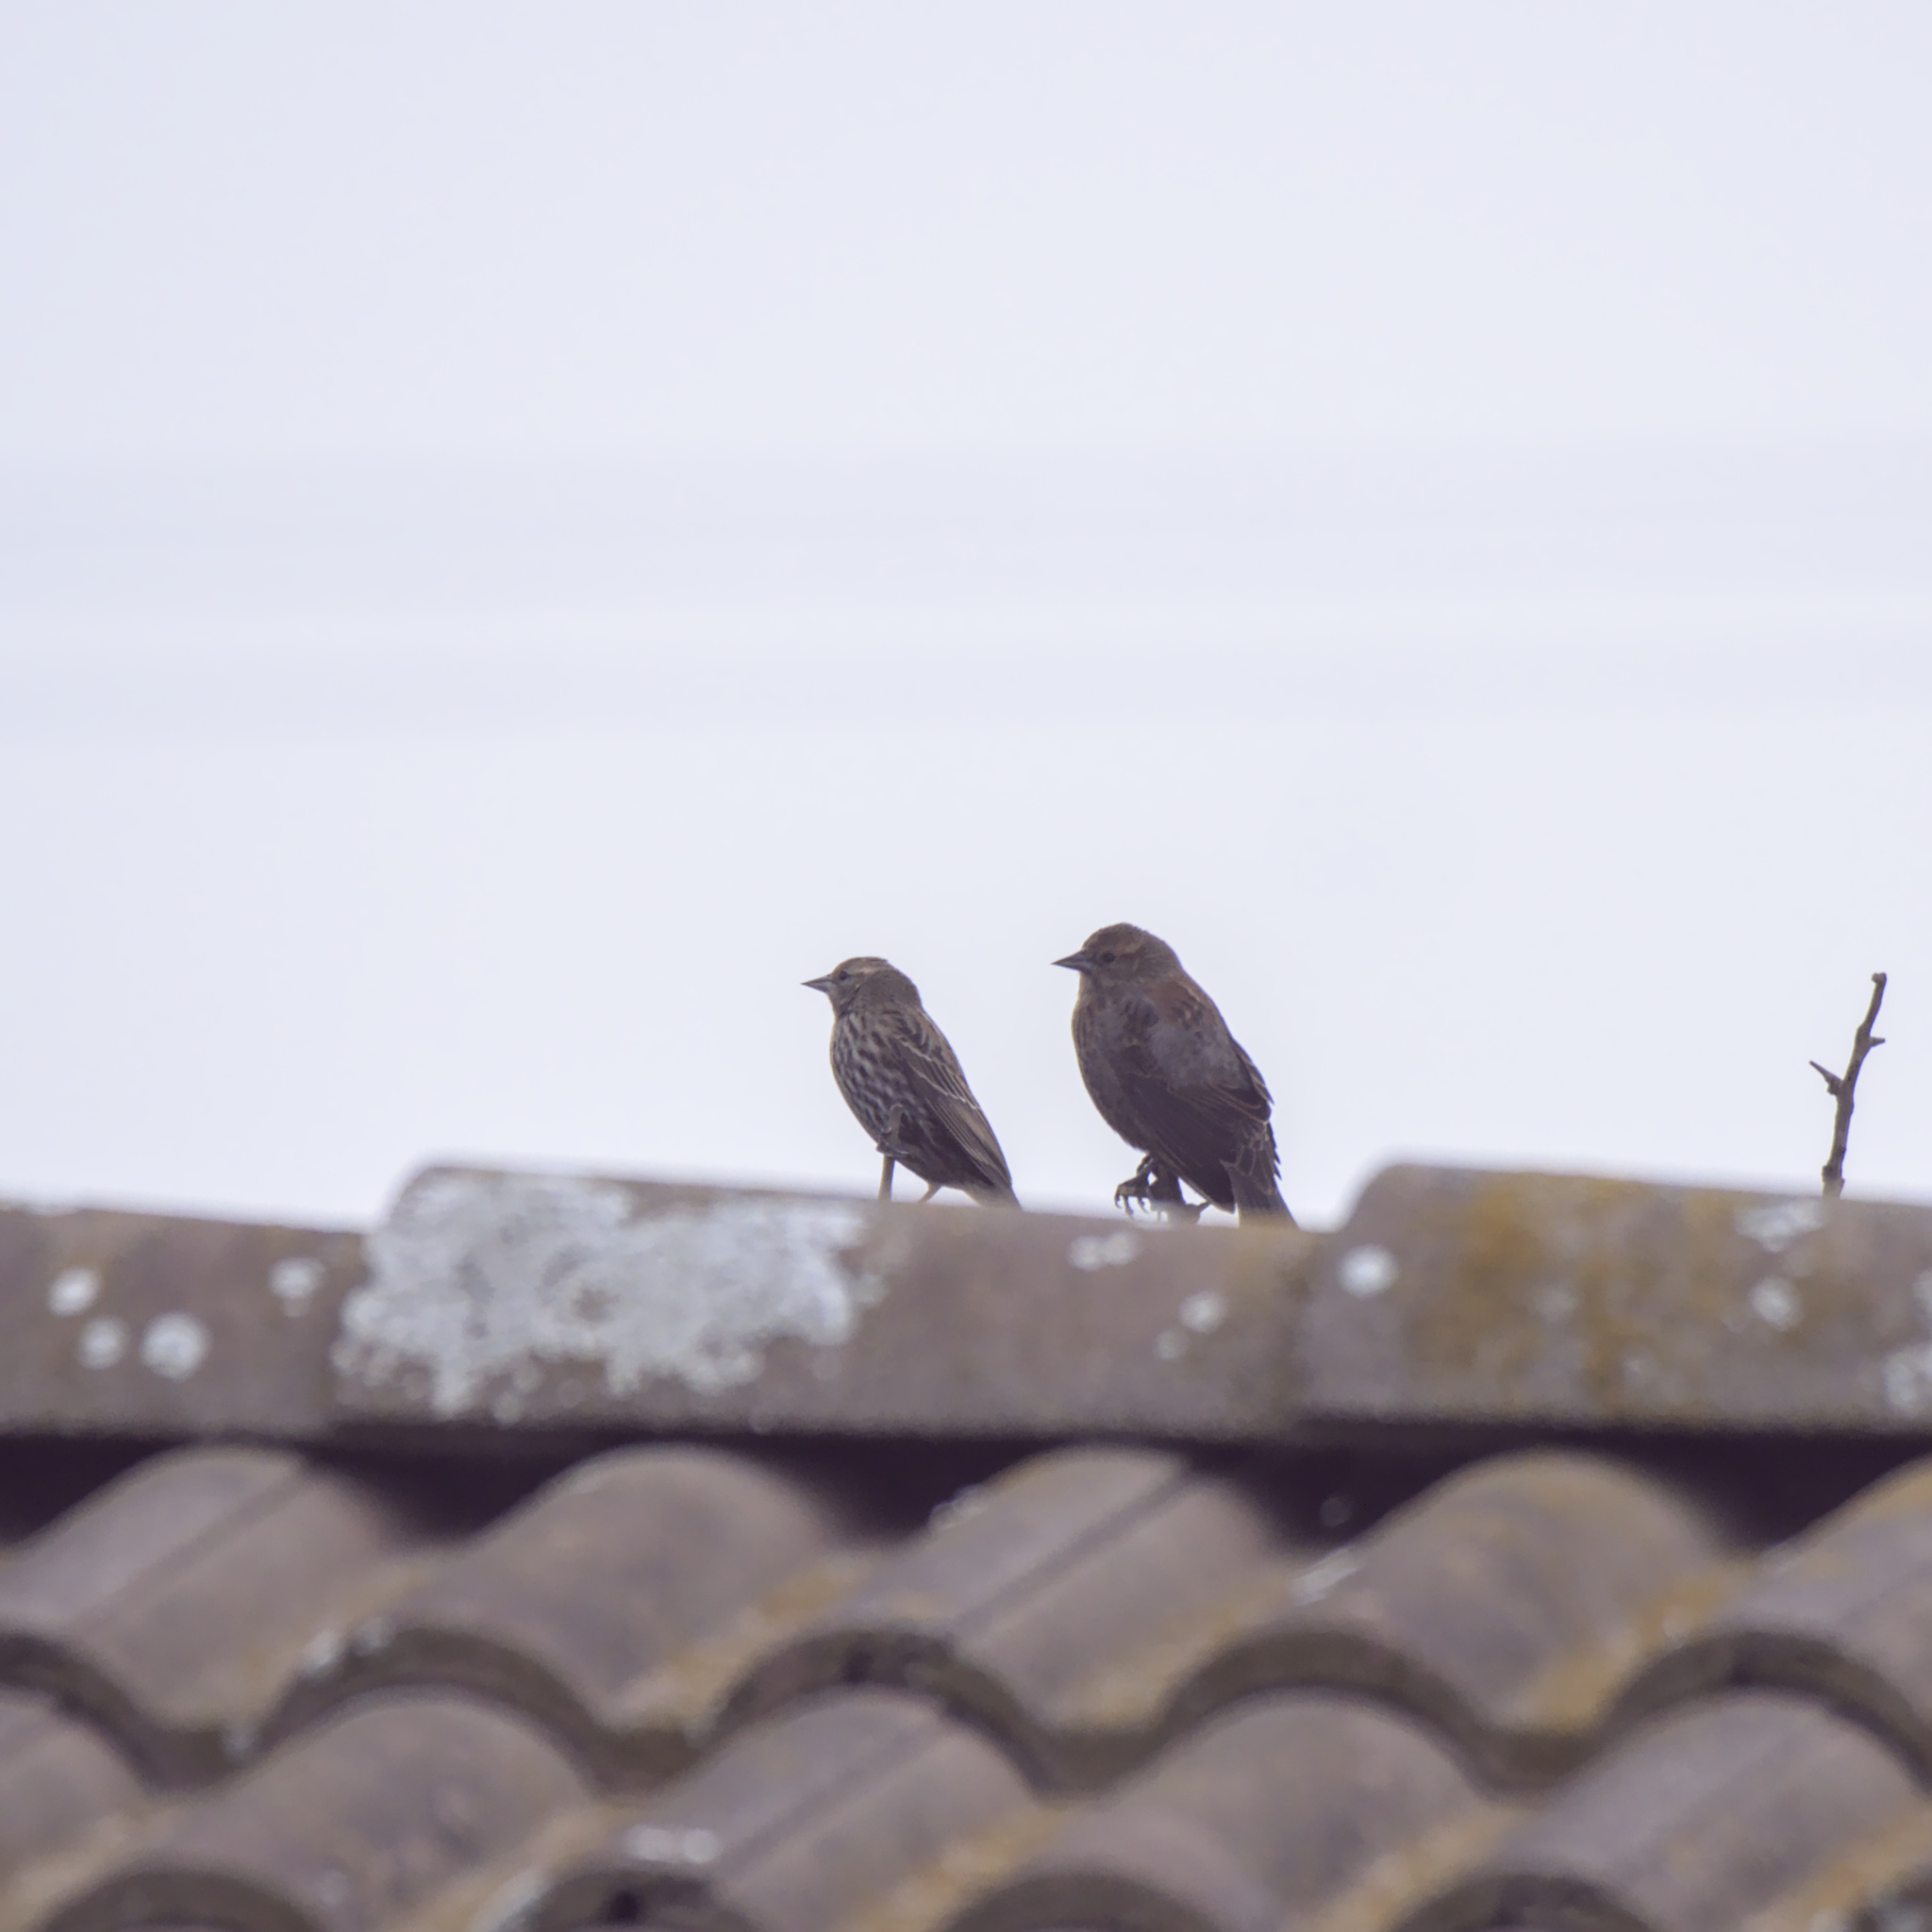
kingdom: Animalia
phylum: Chordata
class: Aves
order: Passeriformes
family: Icteridae
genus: Agelaius
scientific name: Agelaius phoeniceus
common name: Red-winged blackbird
